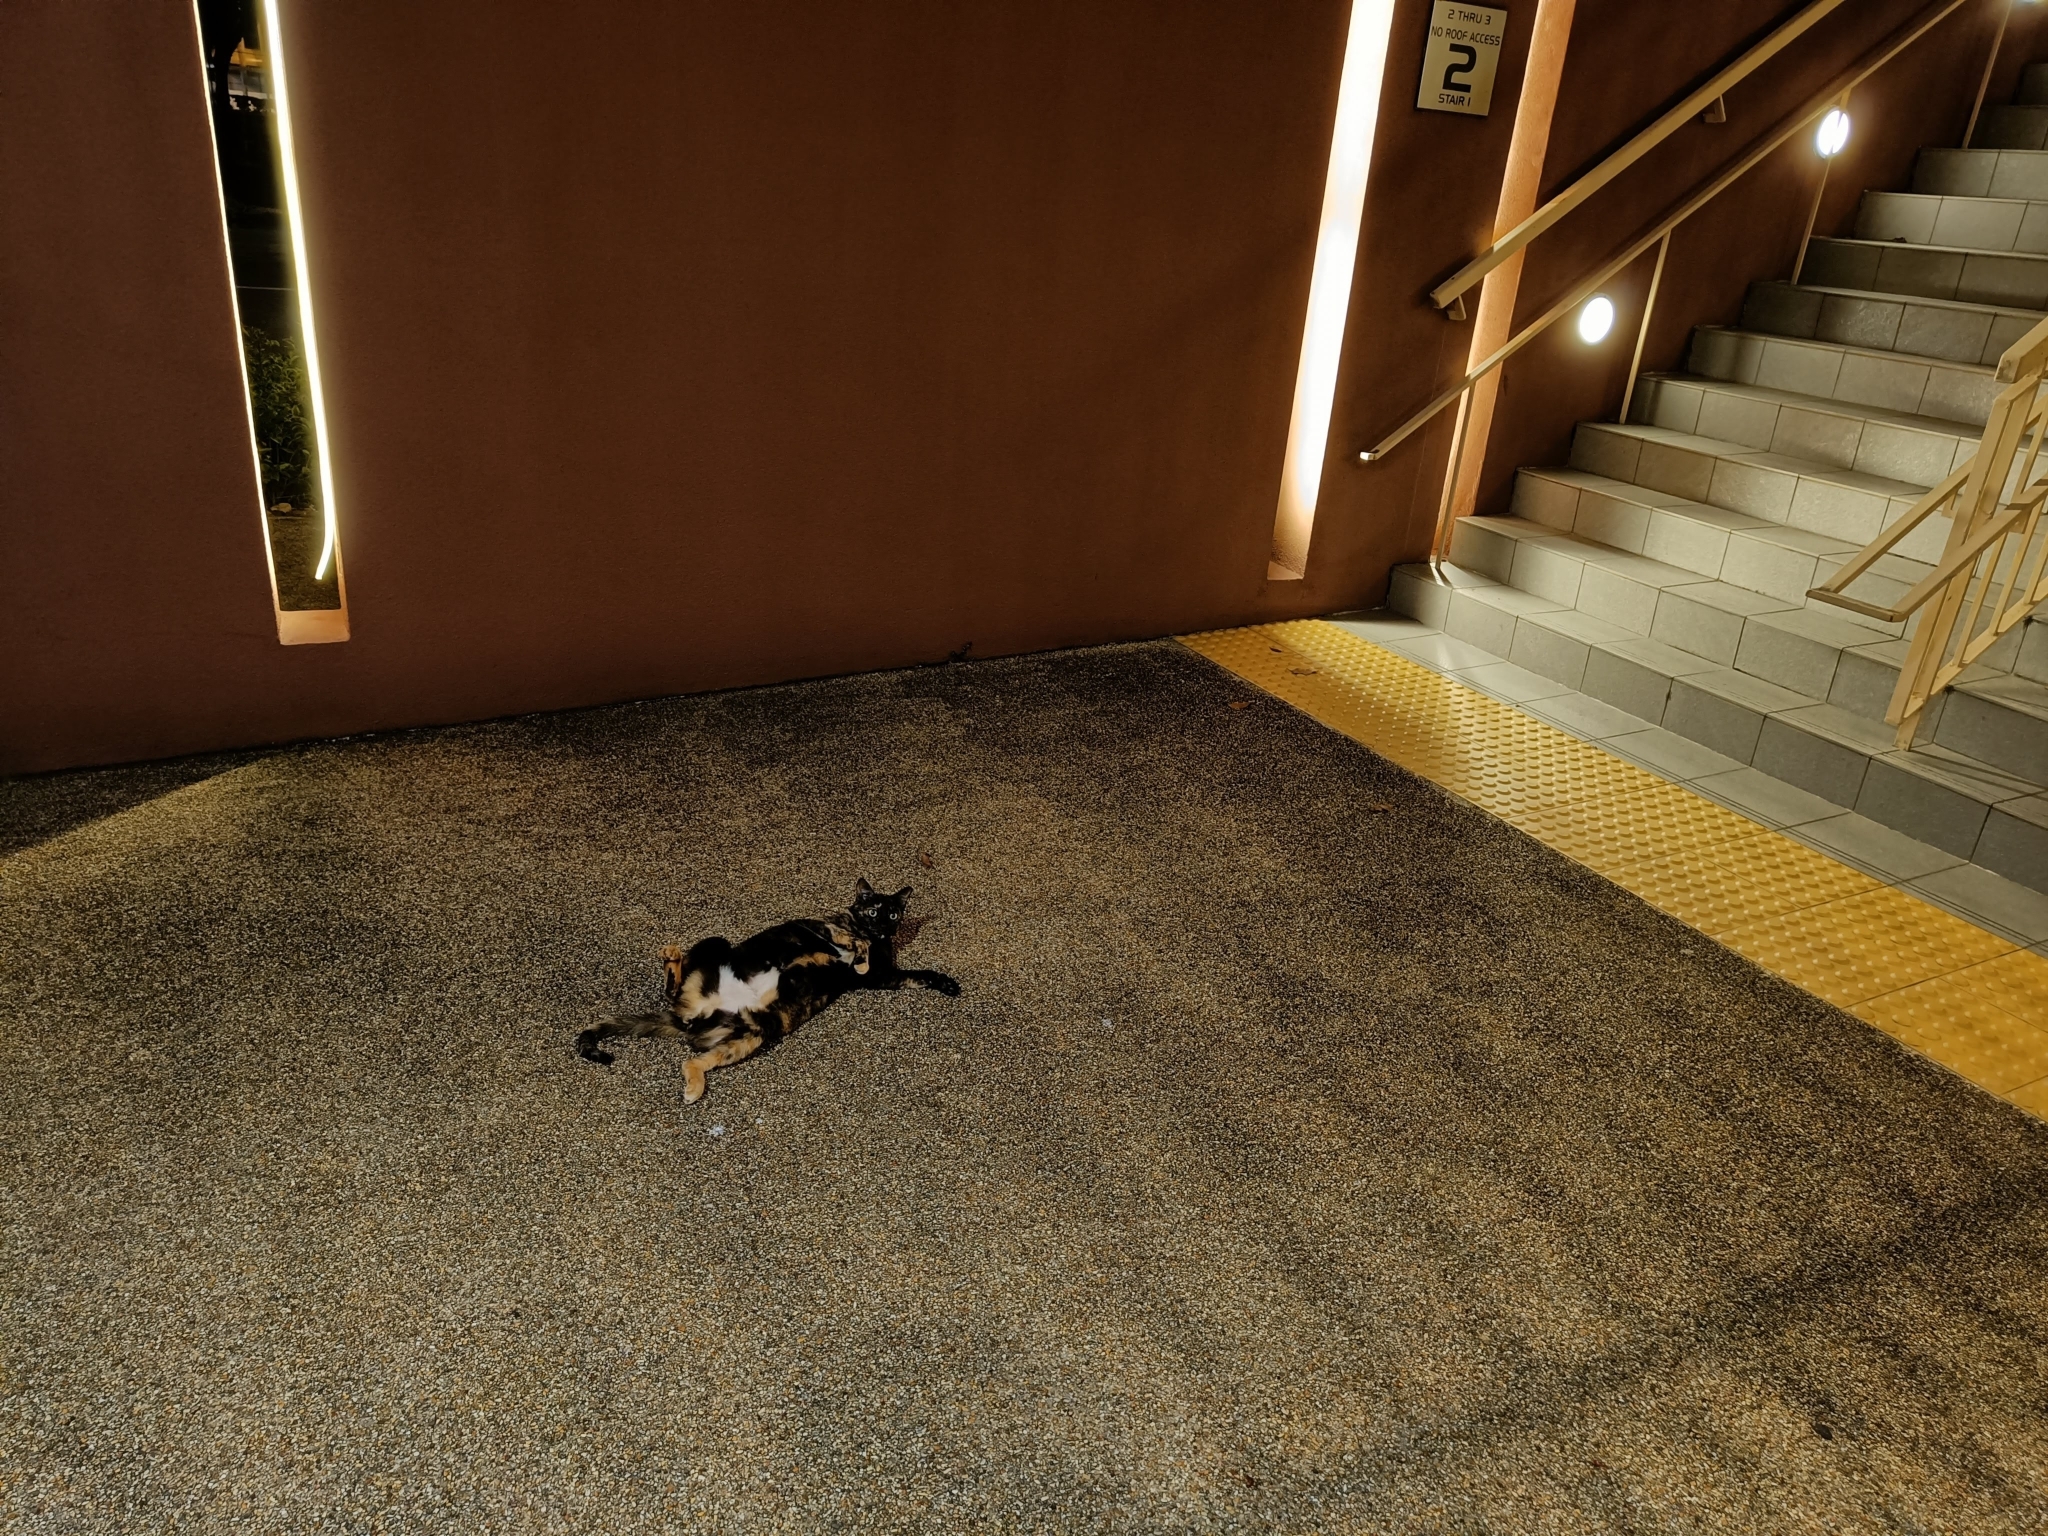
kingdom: Animalia
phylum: Chordata
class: Mammalia
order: Carnivora
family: Felidae
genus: Felis
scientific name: Felis catus
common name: Domestic cat
